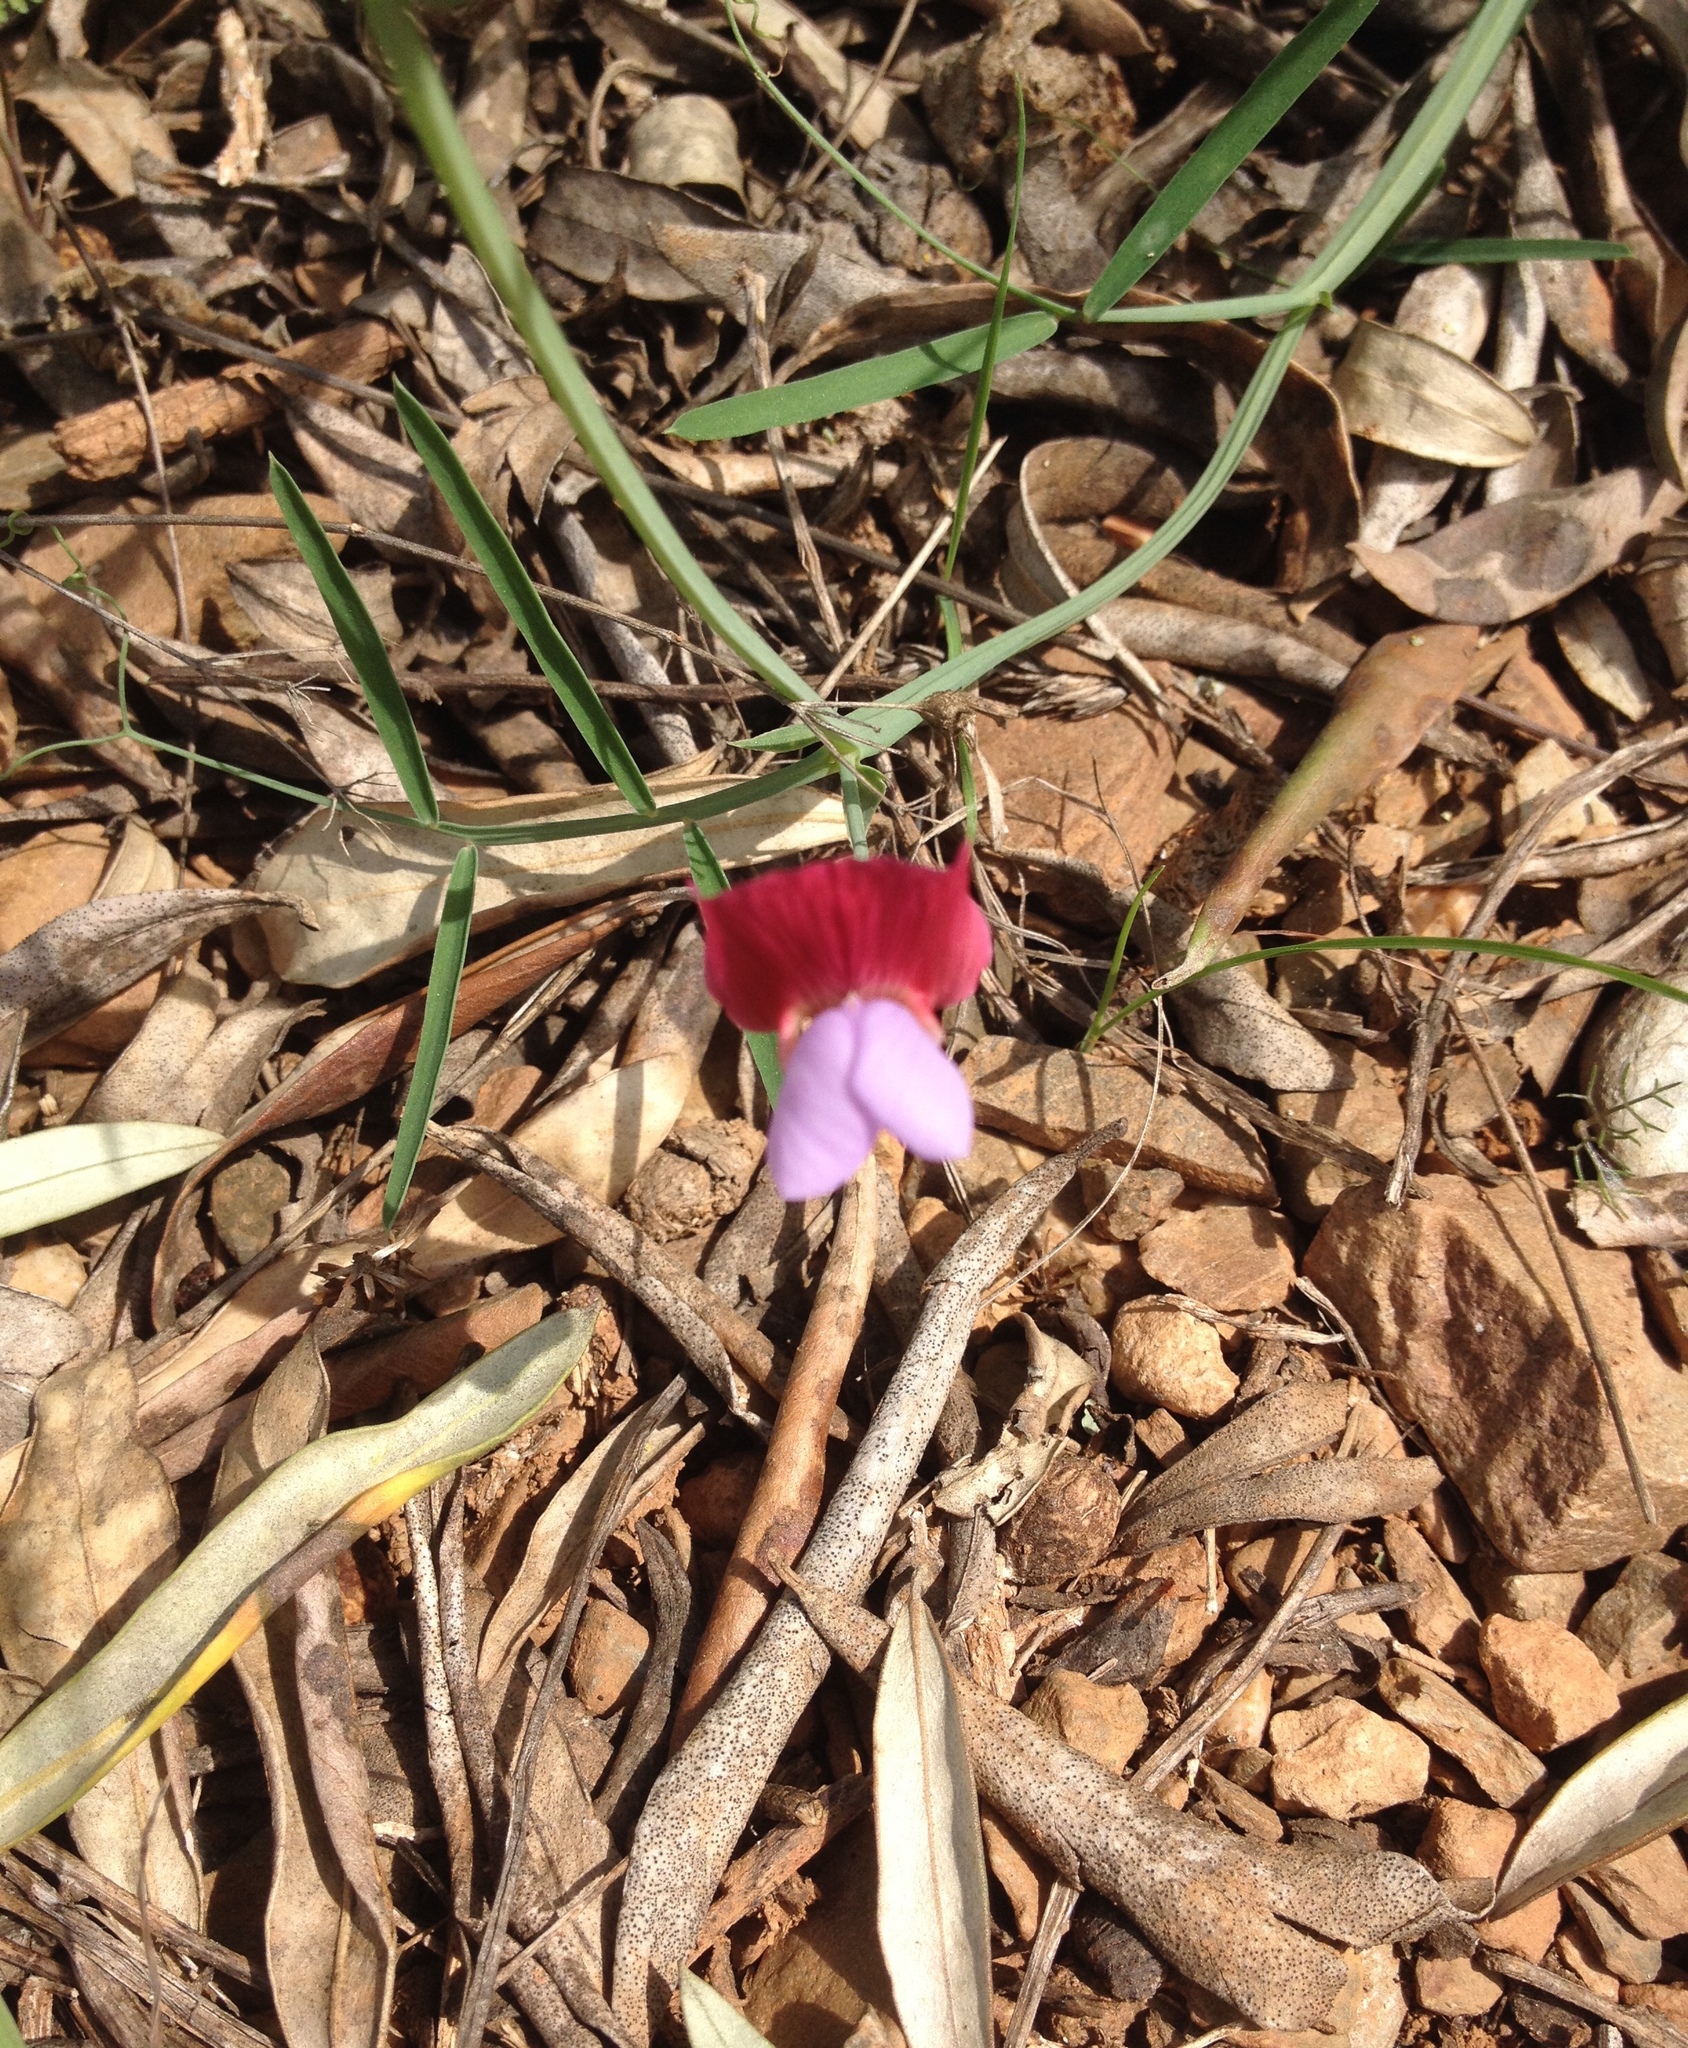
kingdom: Plantae
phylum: Tracheophyta
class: Magnoliopsida
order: Fabales
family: Fabaceae
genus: Lathyrus
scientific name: Lathyrus clymenum
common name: Spanish vetchling
